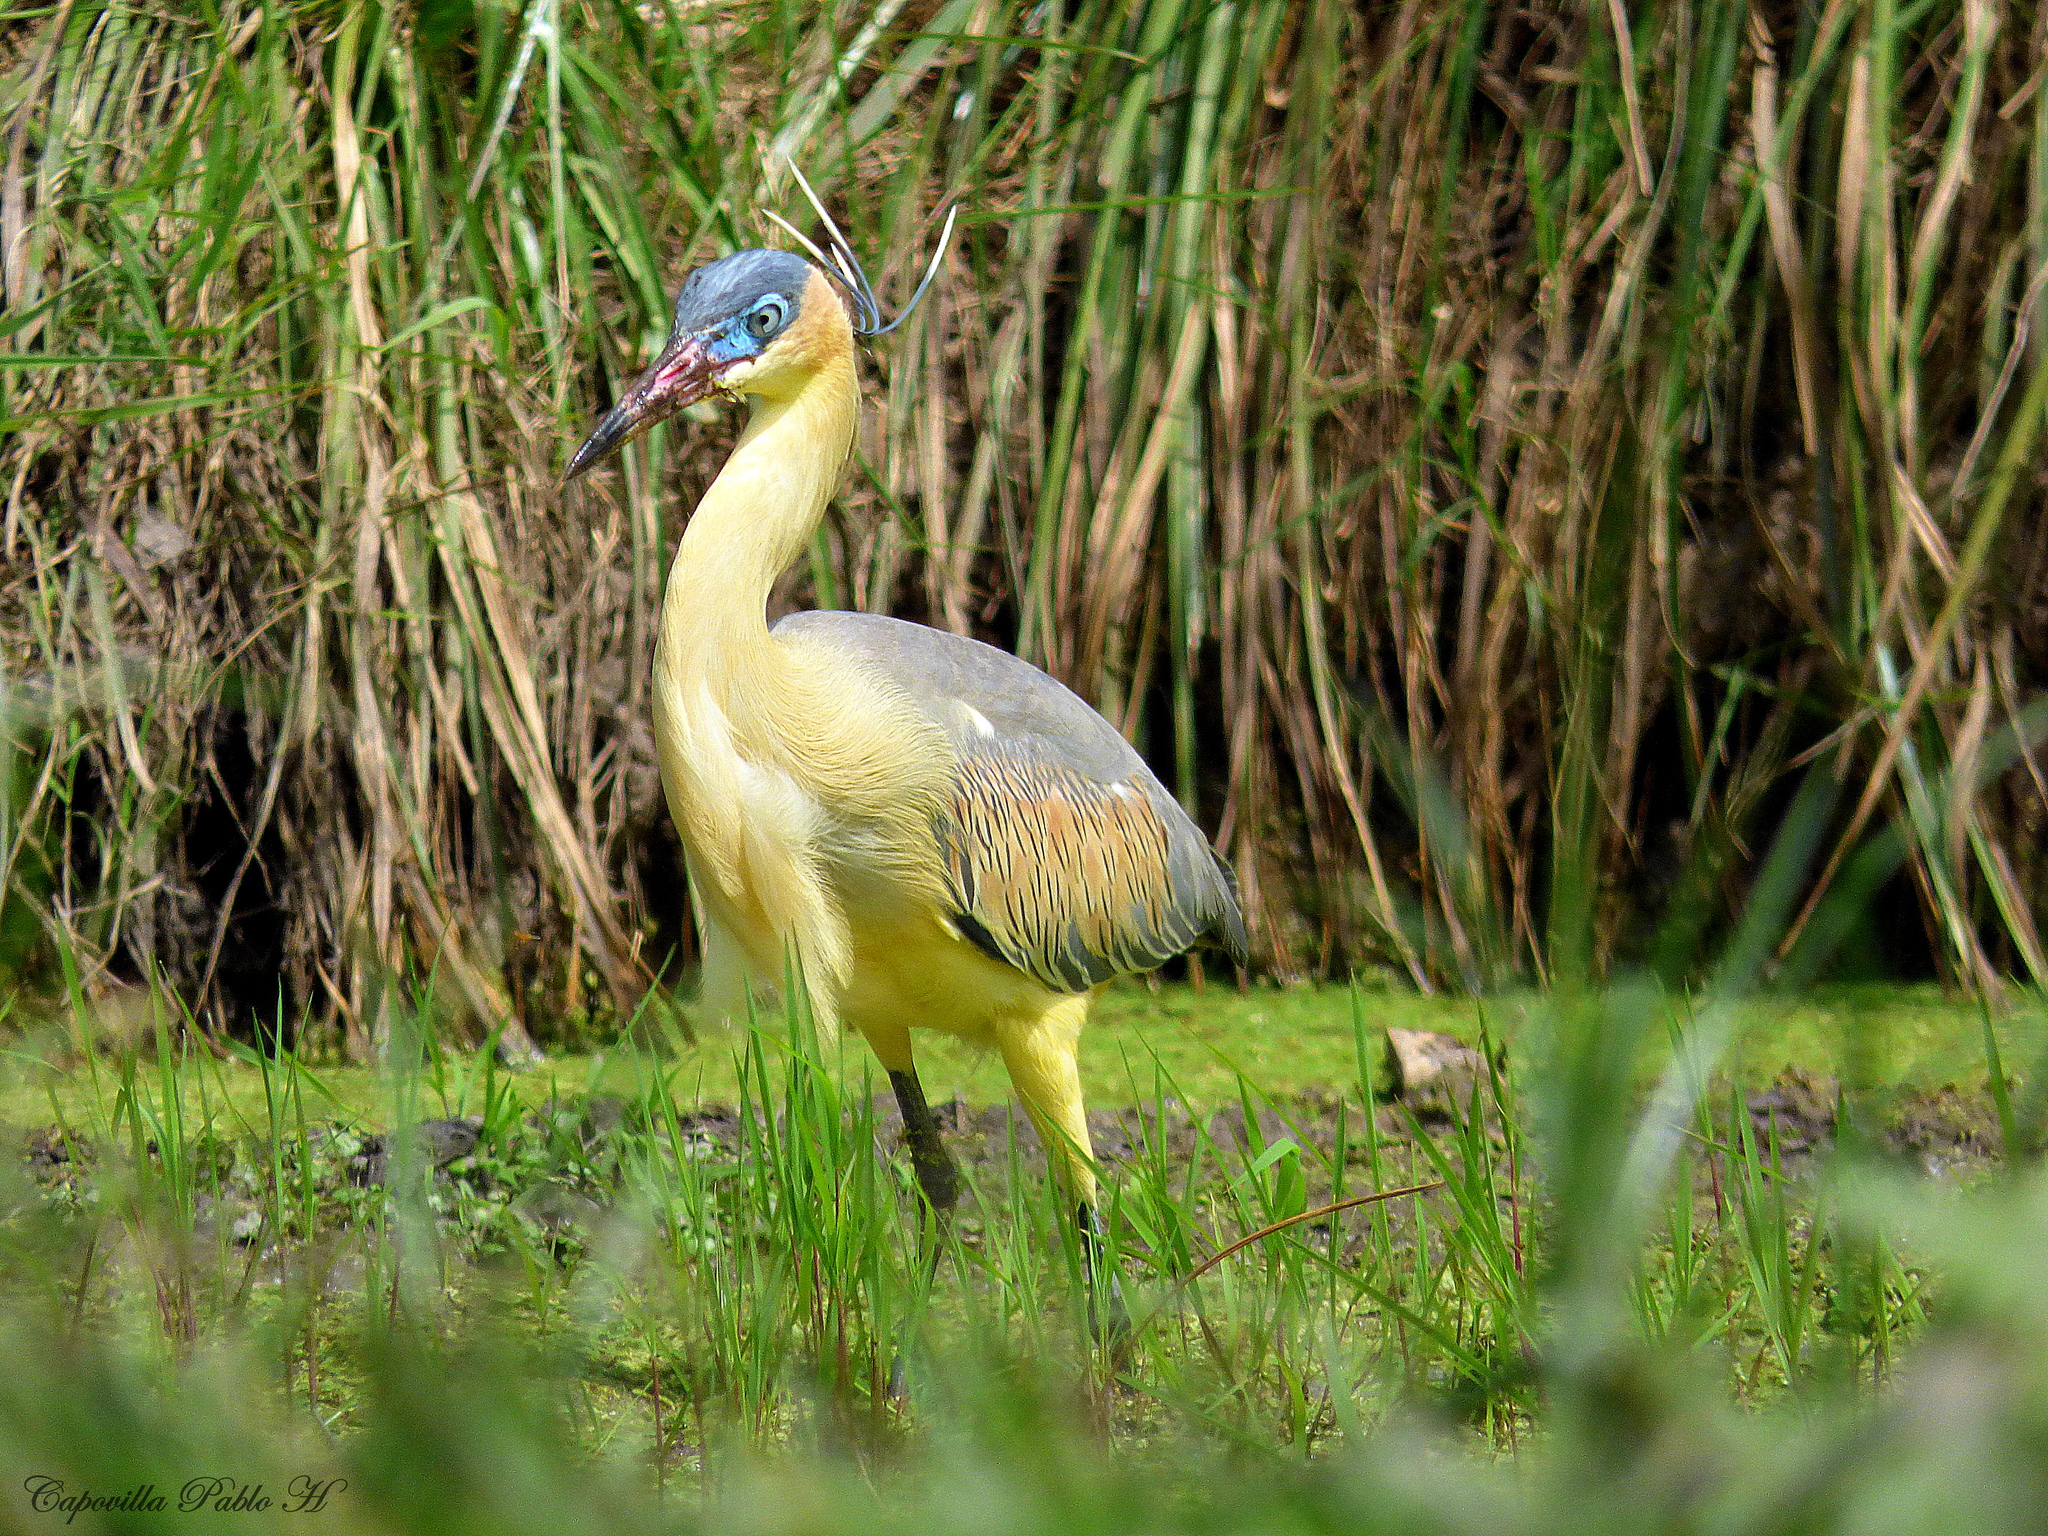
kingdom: Animalia
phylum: Chordata
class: Aves
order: Pelecaniformes
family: Ardeidae
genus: Syrigma
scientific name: Syrigma sibilatrix
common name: Whistling heron
